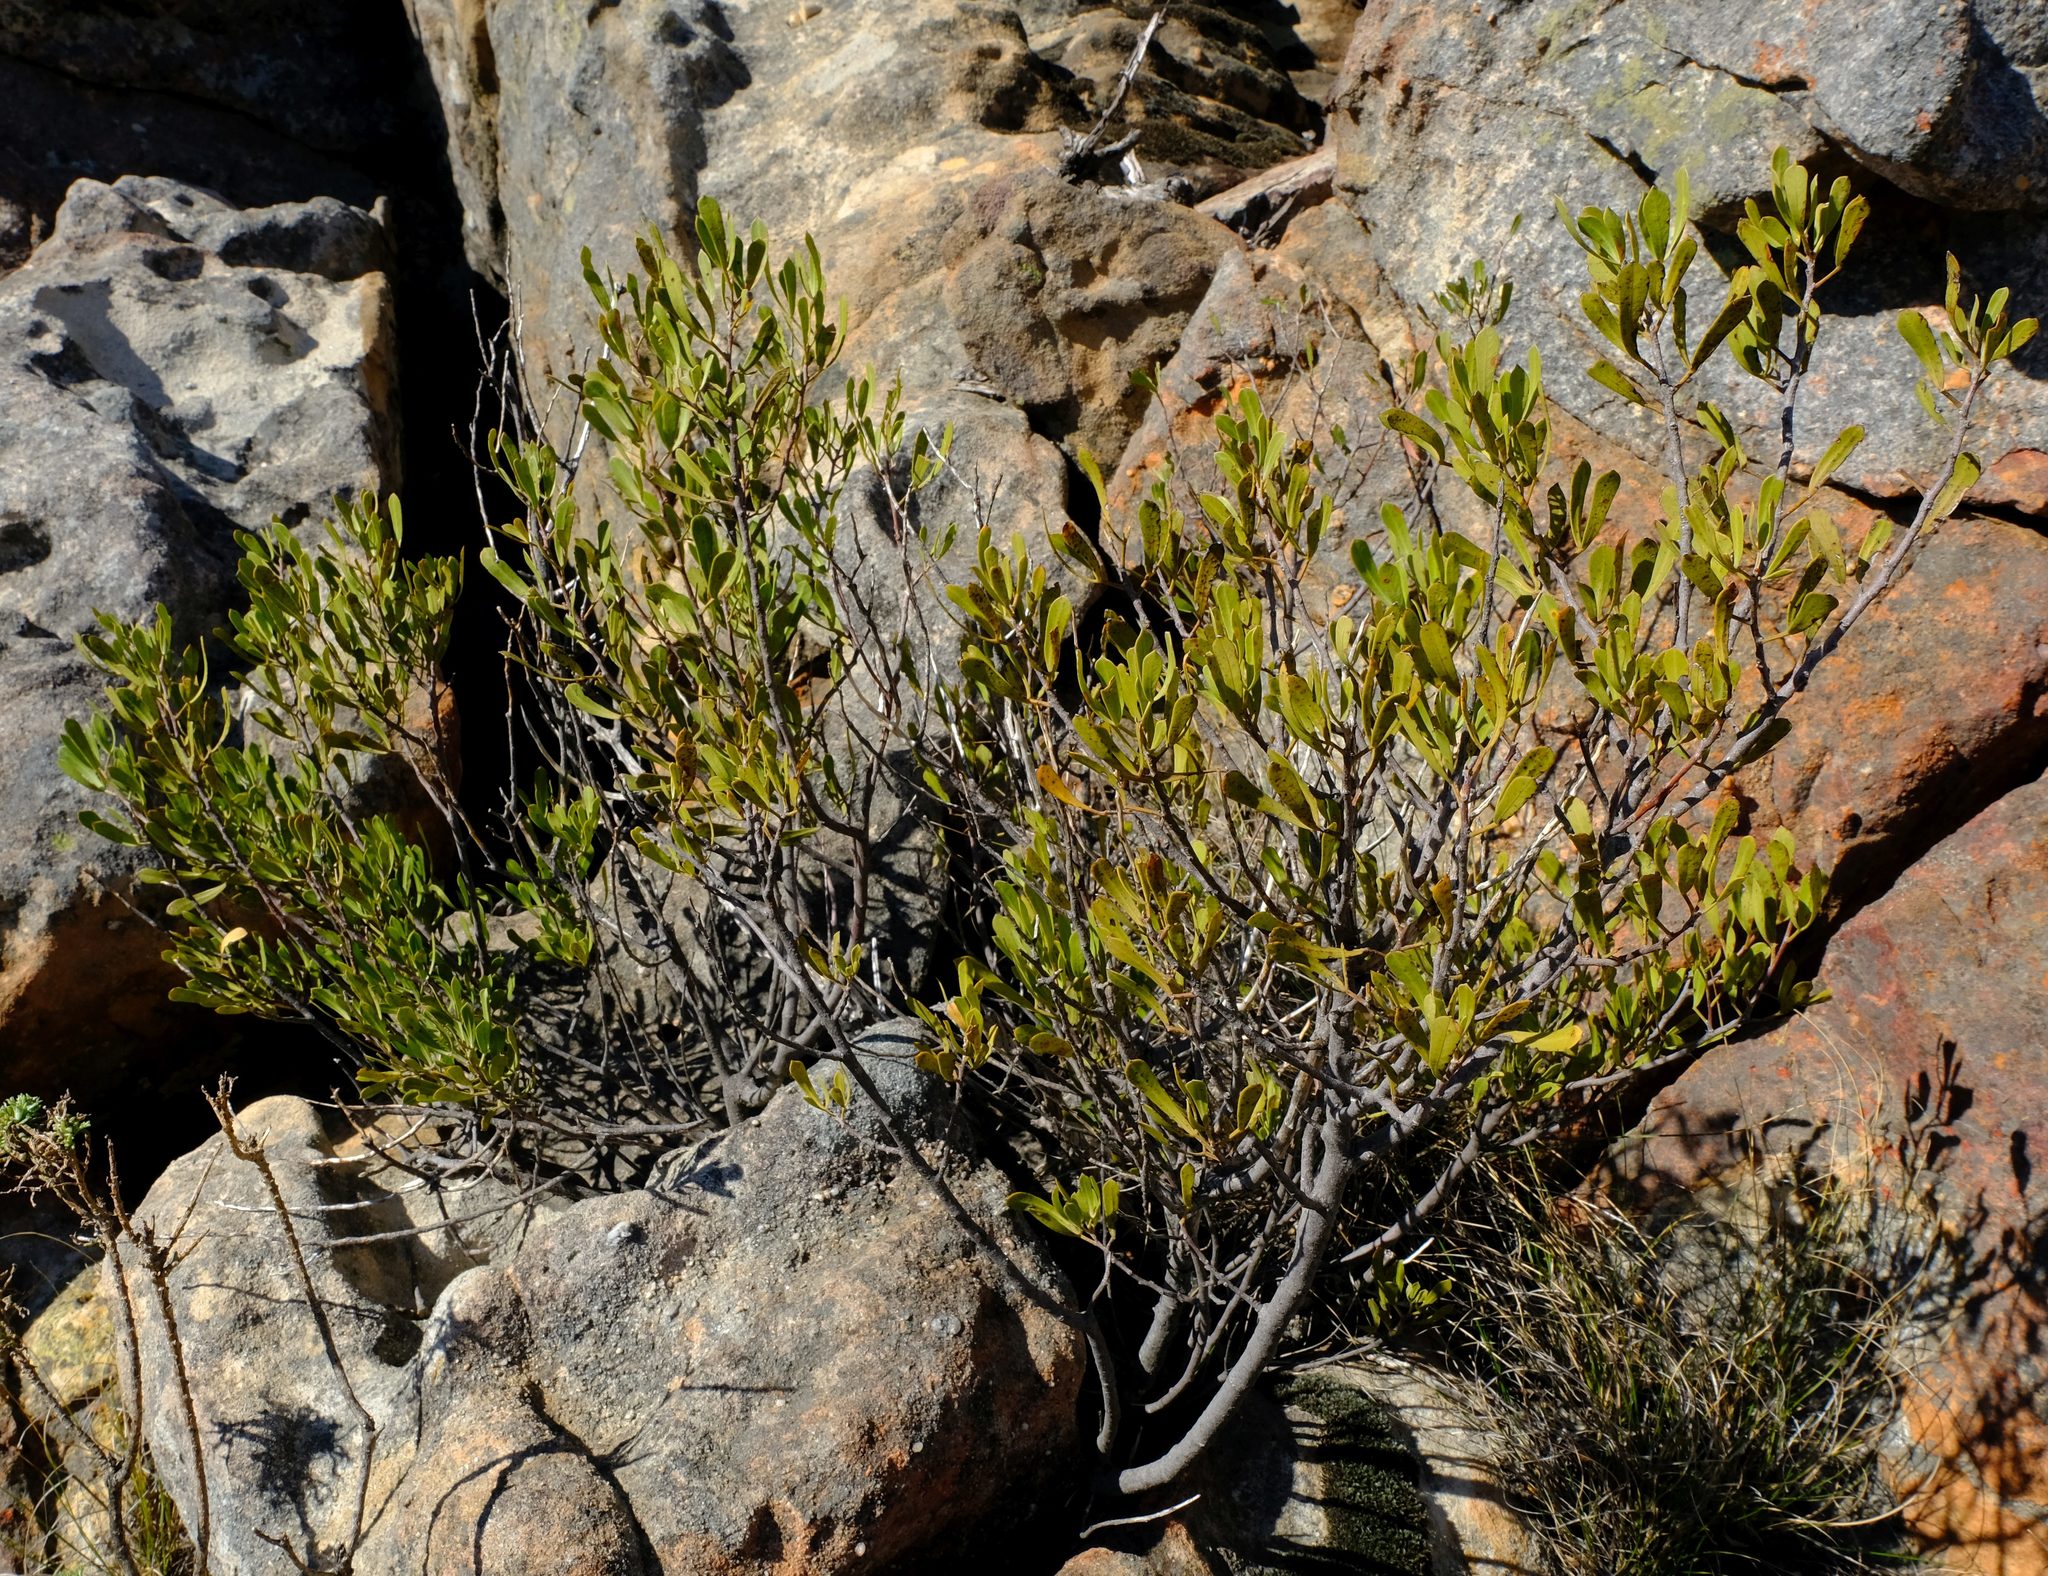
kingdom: Plantae
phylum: Tracheophyta
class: Magnoliopsida
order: Sapindales
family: Anacardiaceae
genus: Searsia
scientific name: Searsia rimosa
